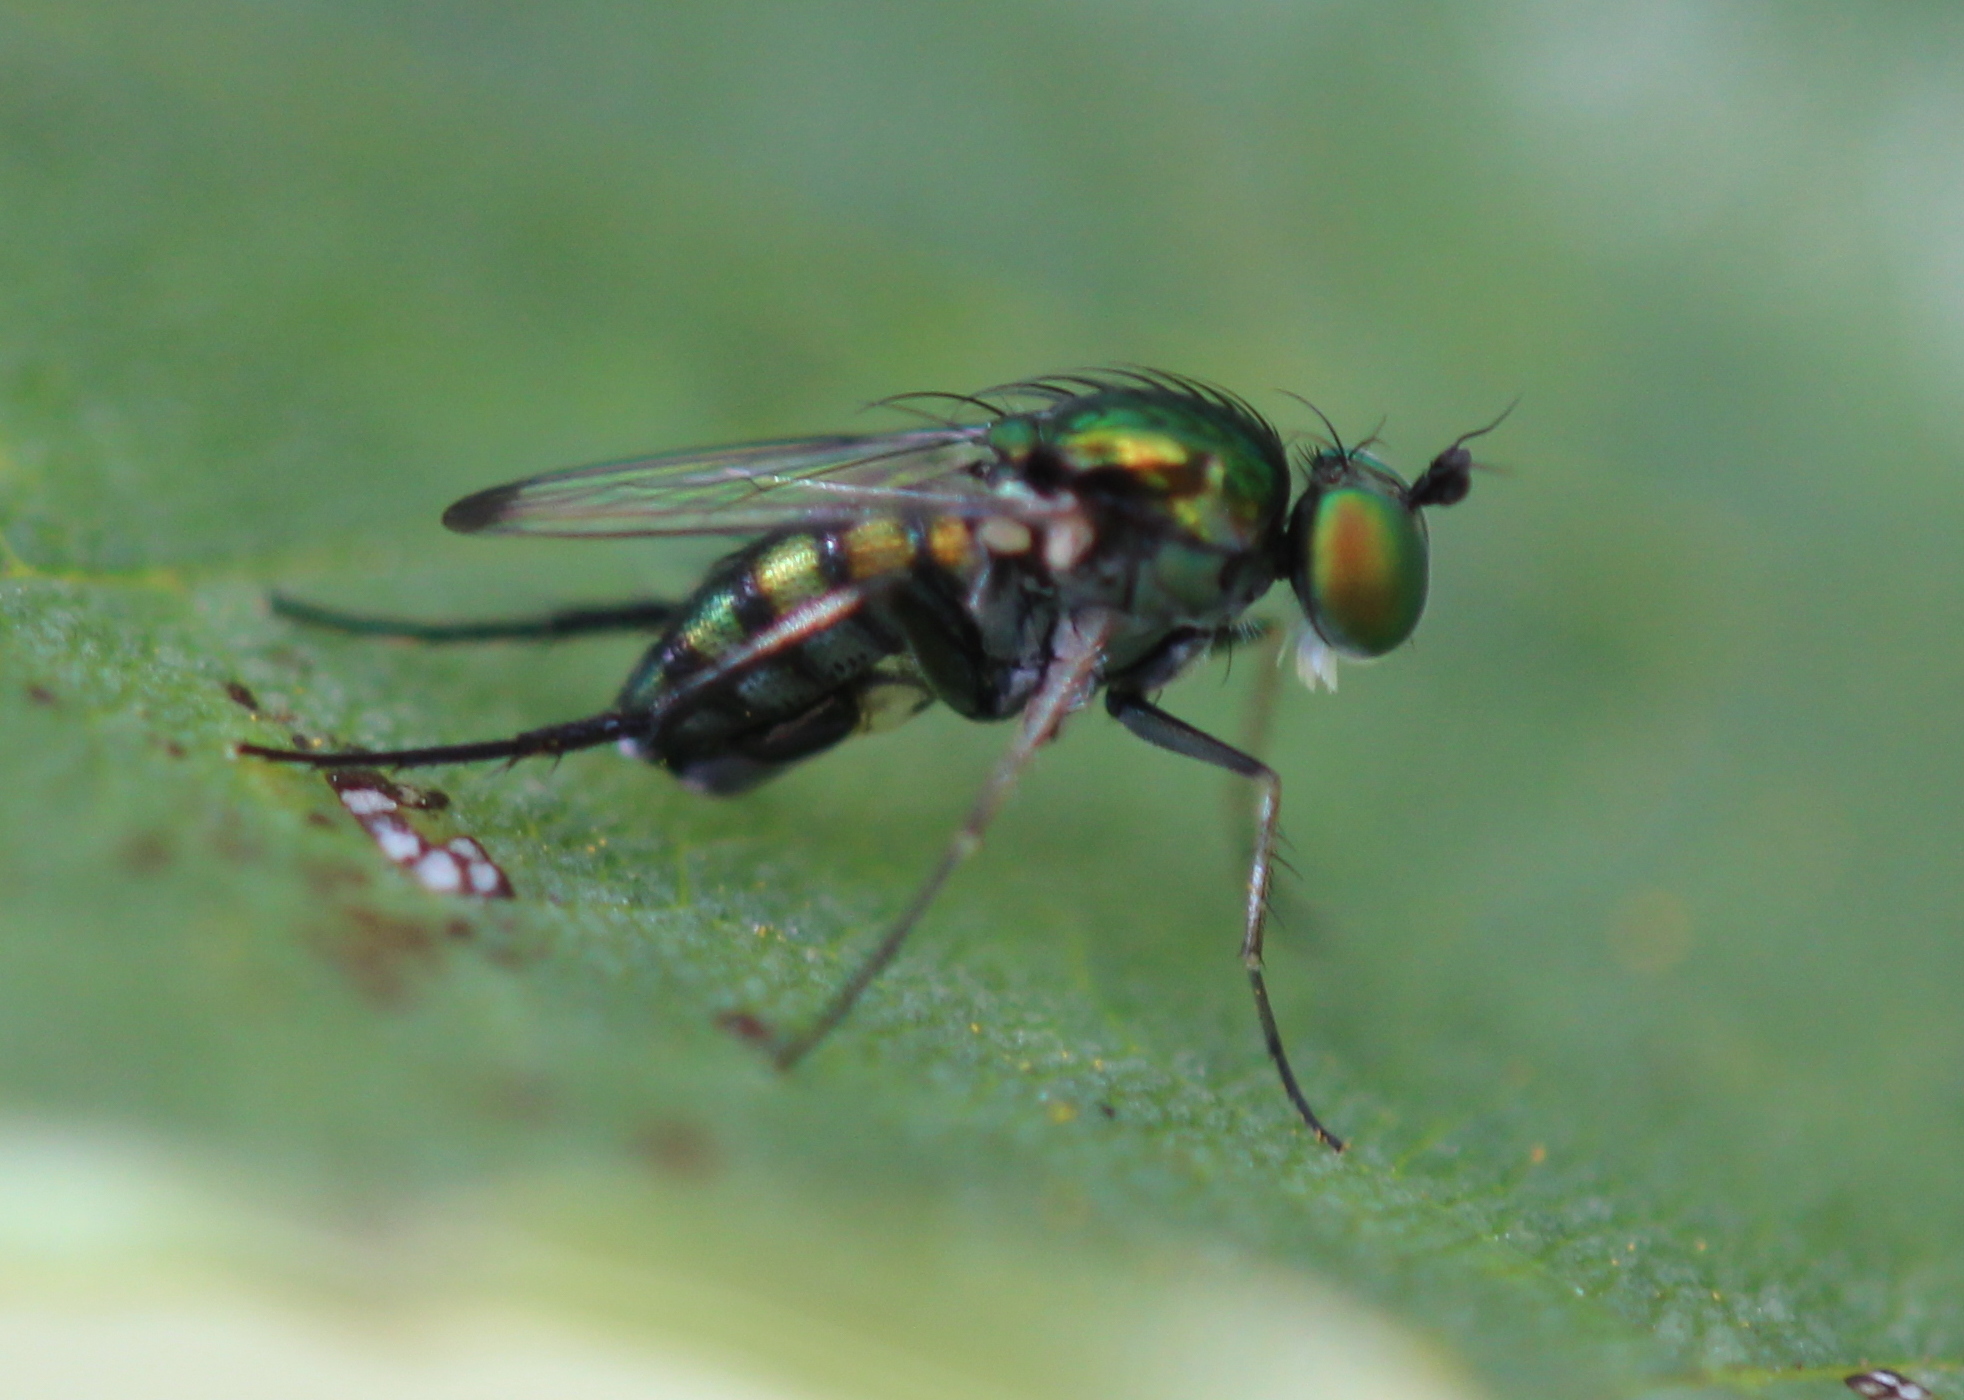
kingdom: Animalia
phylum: Arthropoda
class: Insecta
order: Diptera
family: Dolichopodidae
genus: Dolichopus
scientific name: Dolichopus setifer
